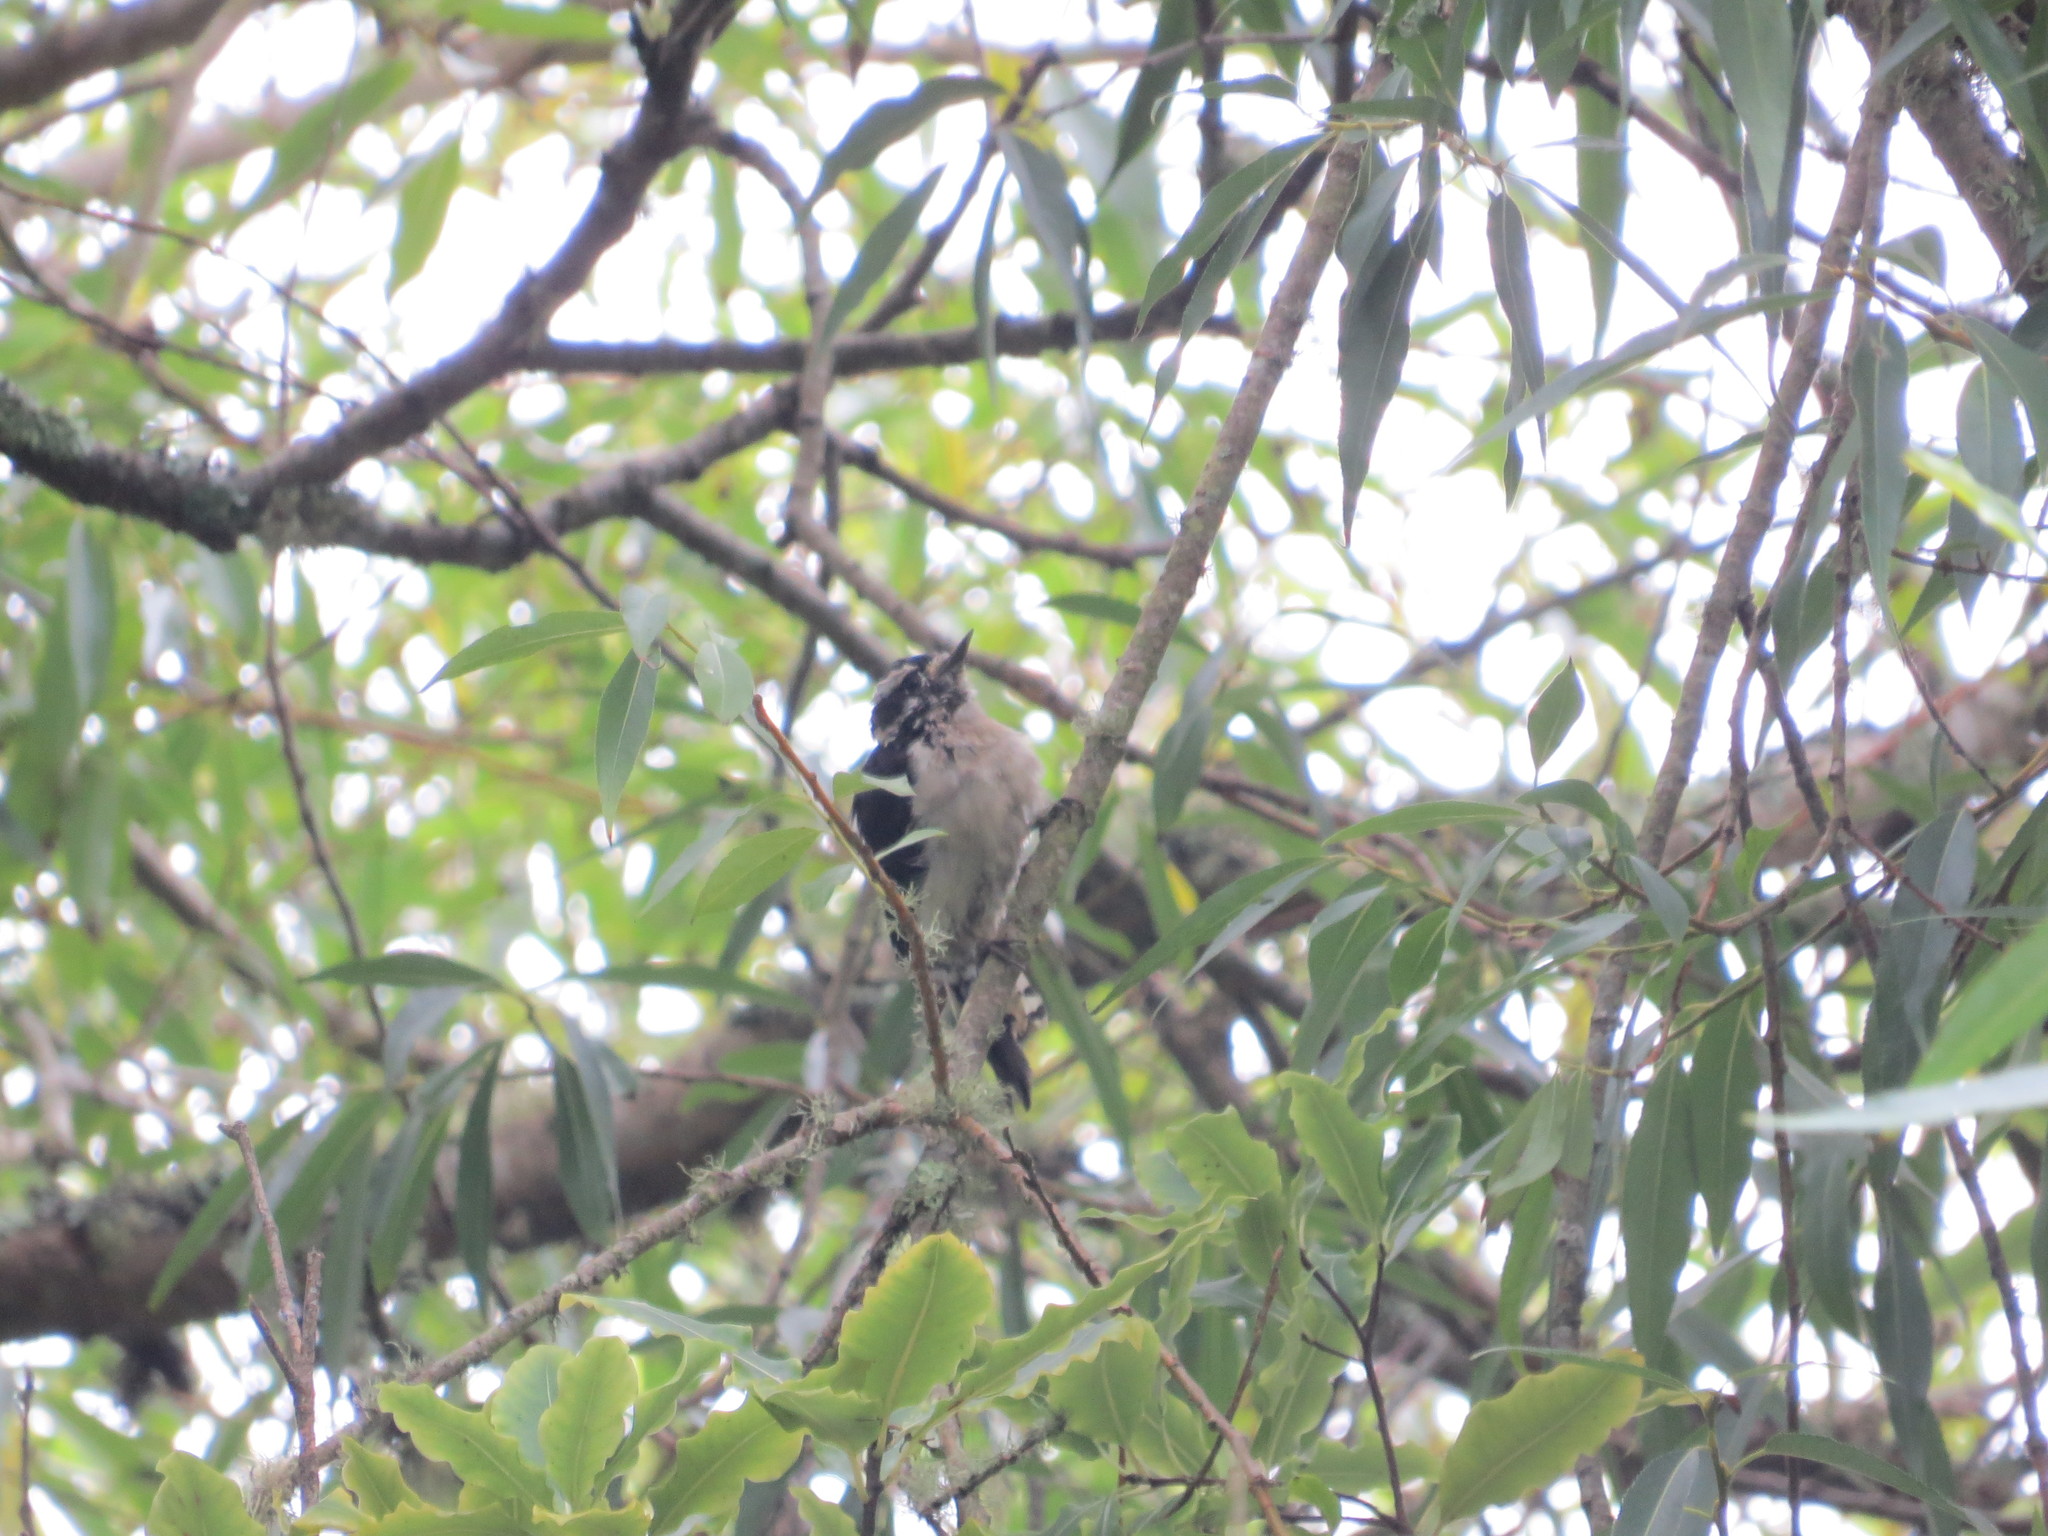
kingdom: Animalia
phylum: Chordata
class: Aves
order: Piciformes
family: Picidae
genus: Dryobates
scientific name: Dryobates pubescens
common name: Downy woodpecker
